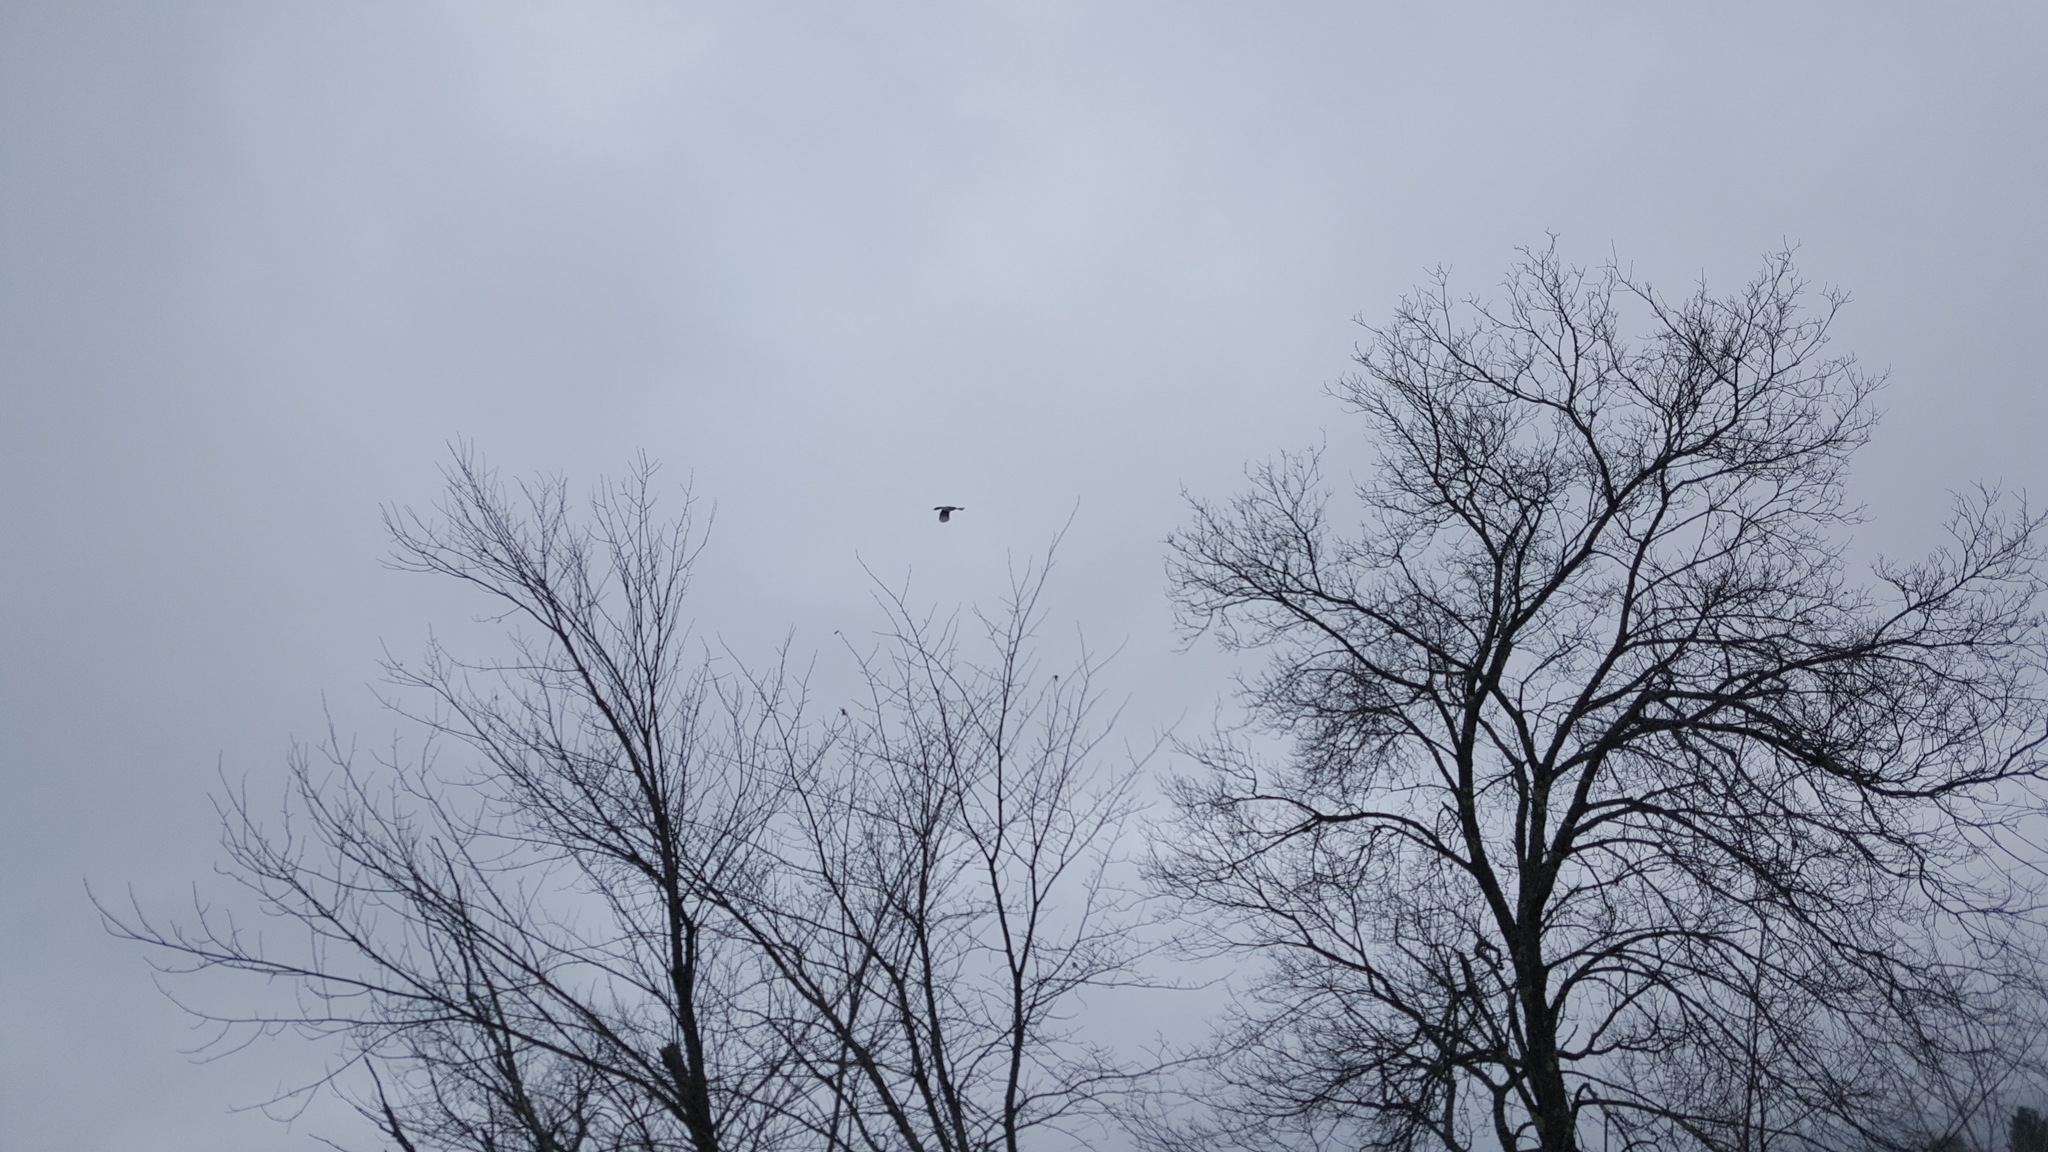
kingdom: Animalia
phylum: Chordata
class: Aves
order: Piciformes
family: Picidae
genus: Dryocopus
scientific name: Dryocopus pileatus
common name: Pileated woodpecker
